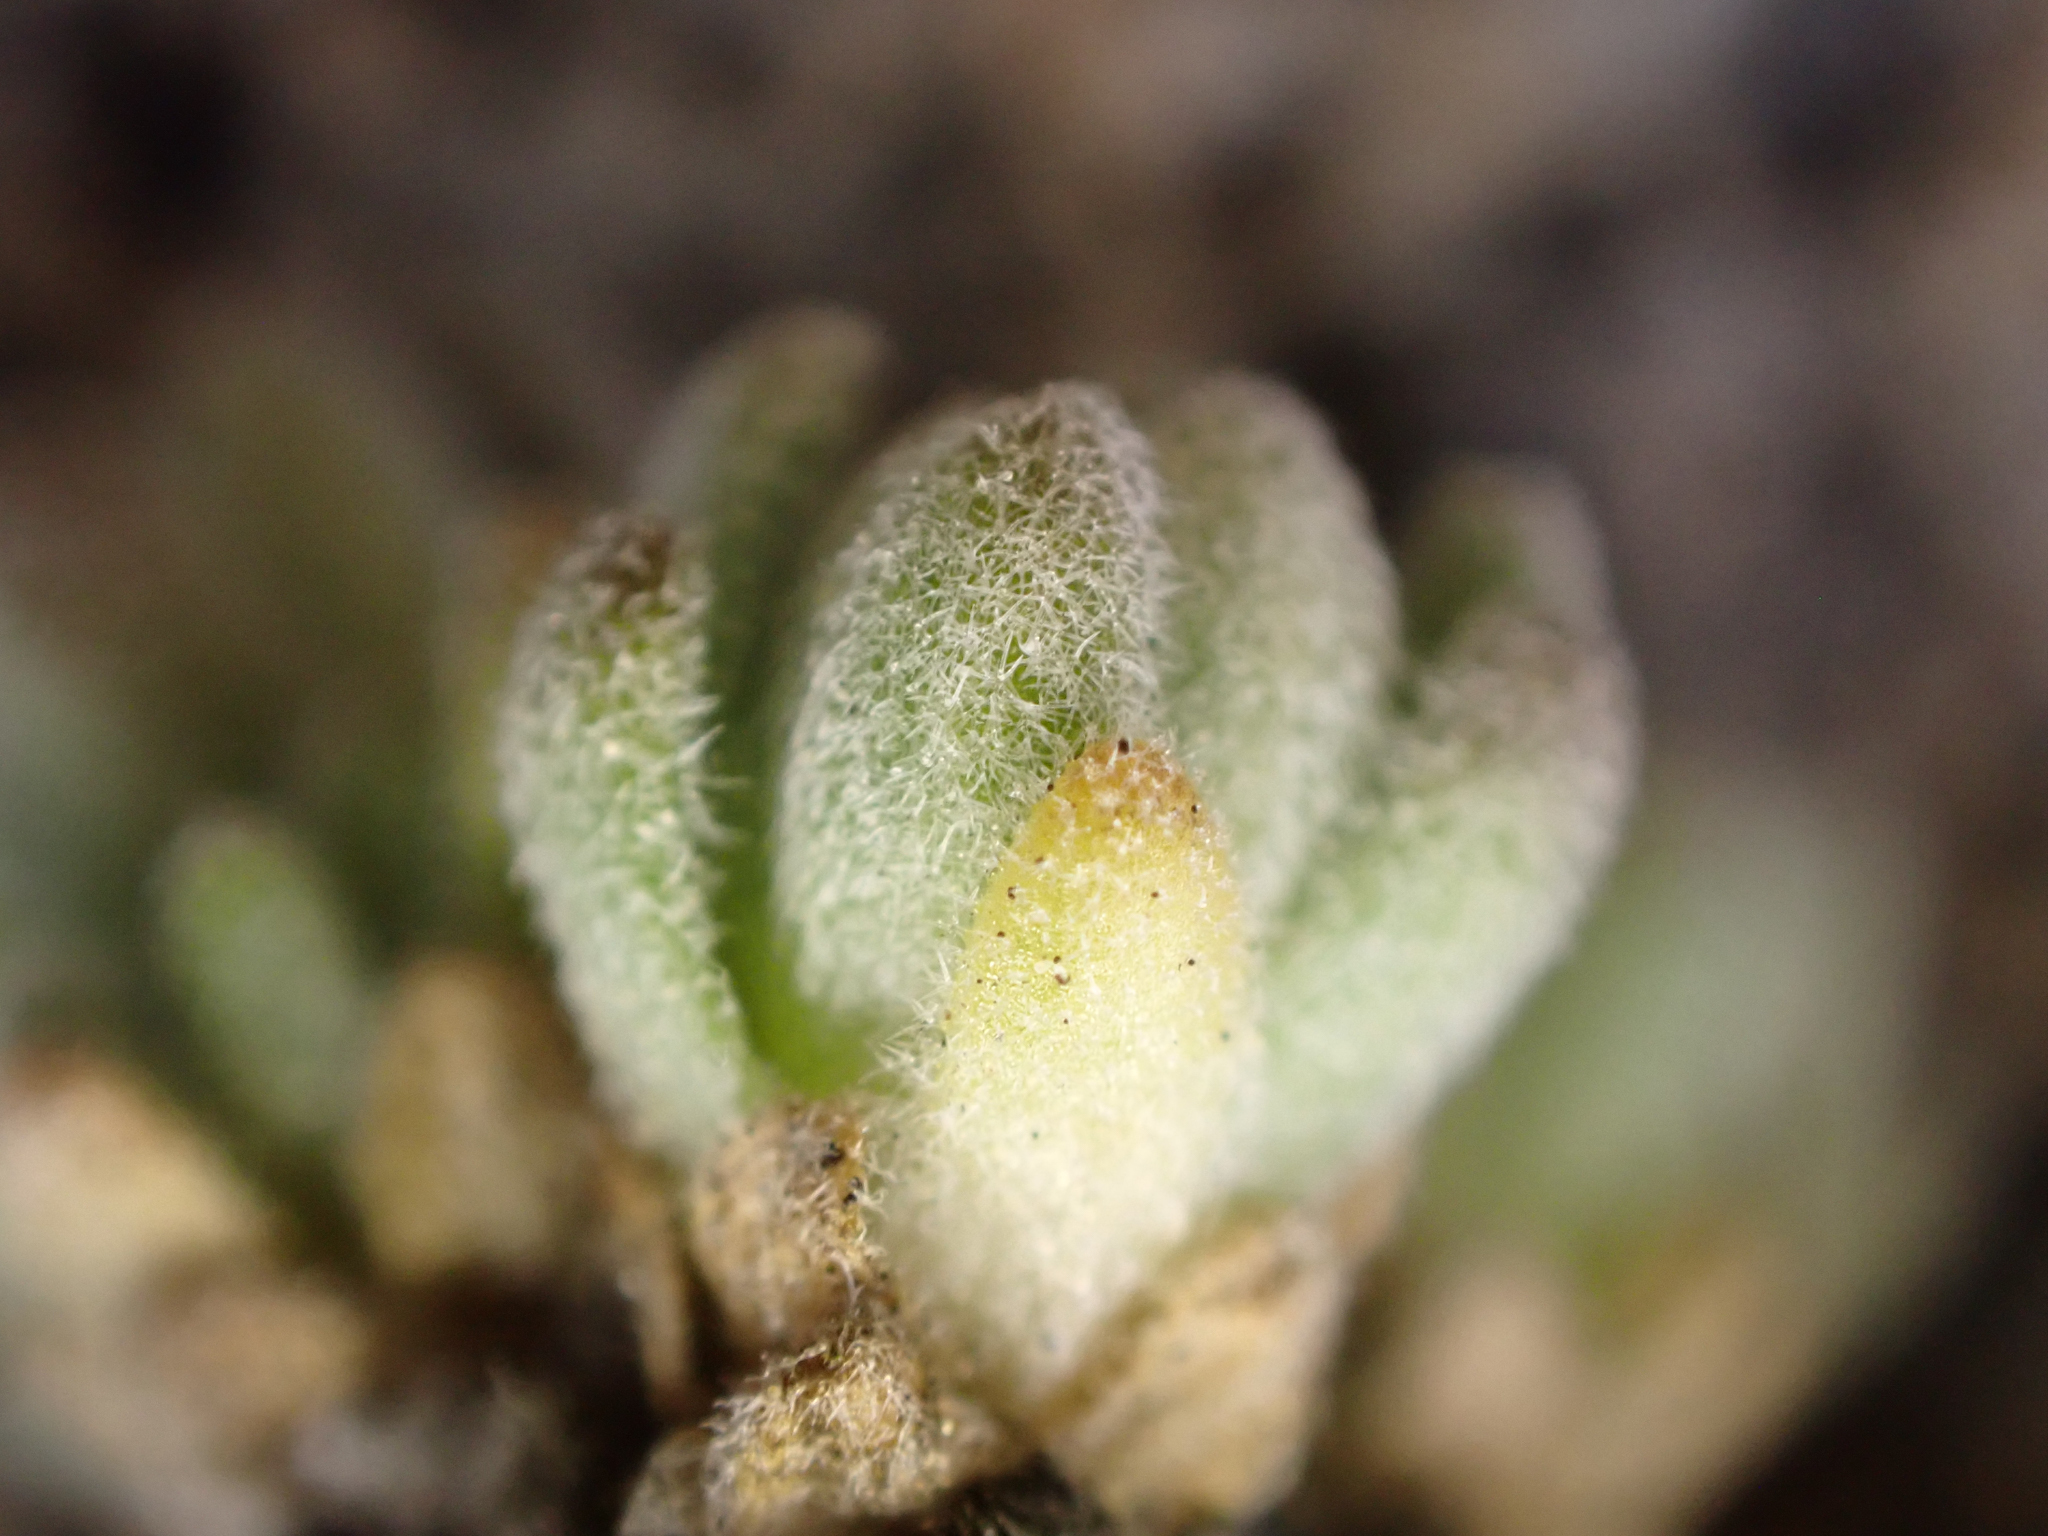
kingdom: Plantae
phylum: Tracheophyta
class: Magnoliopsida
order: Brassicales
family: Brassicaceae
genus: Draba
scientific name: Draba subumbellata
